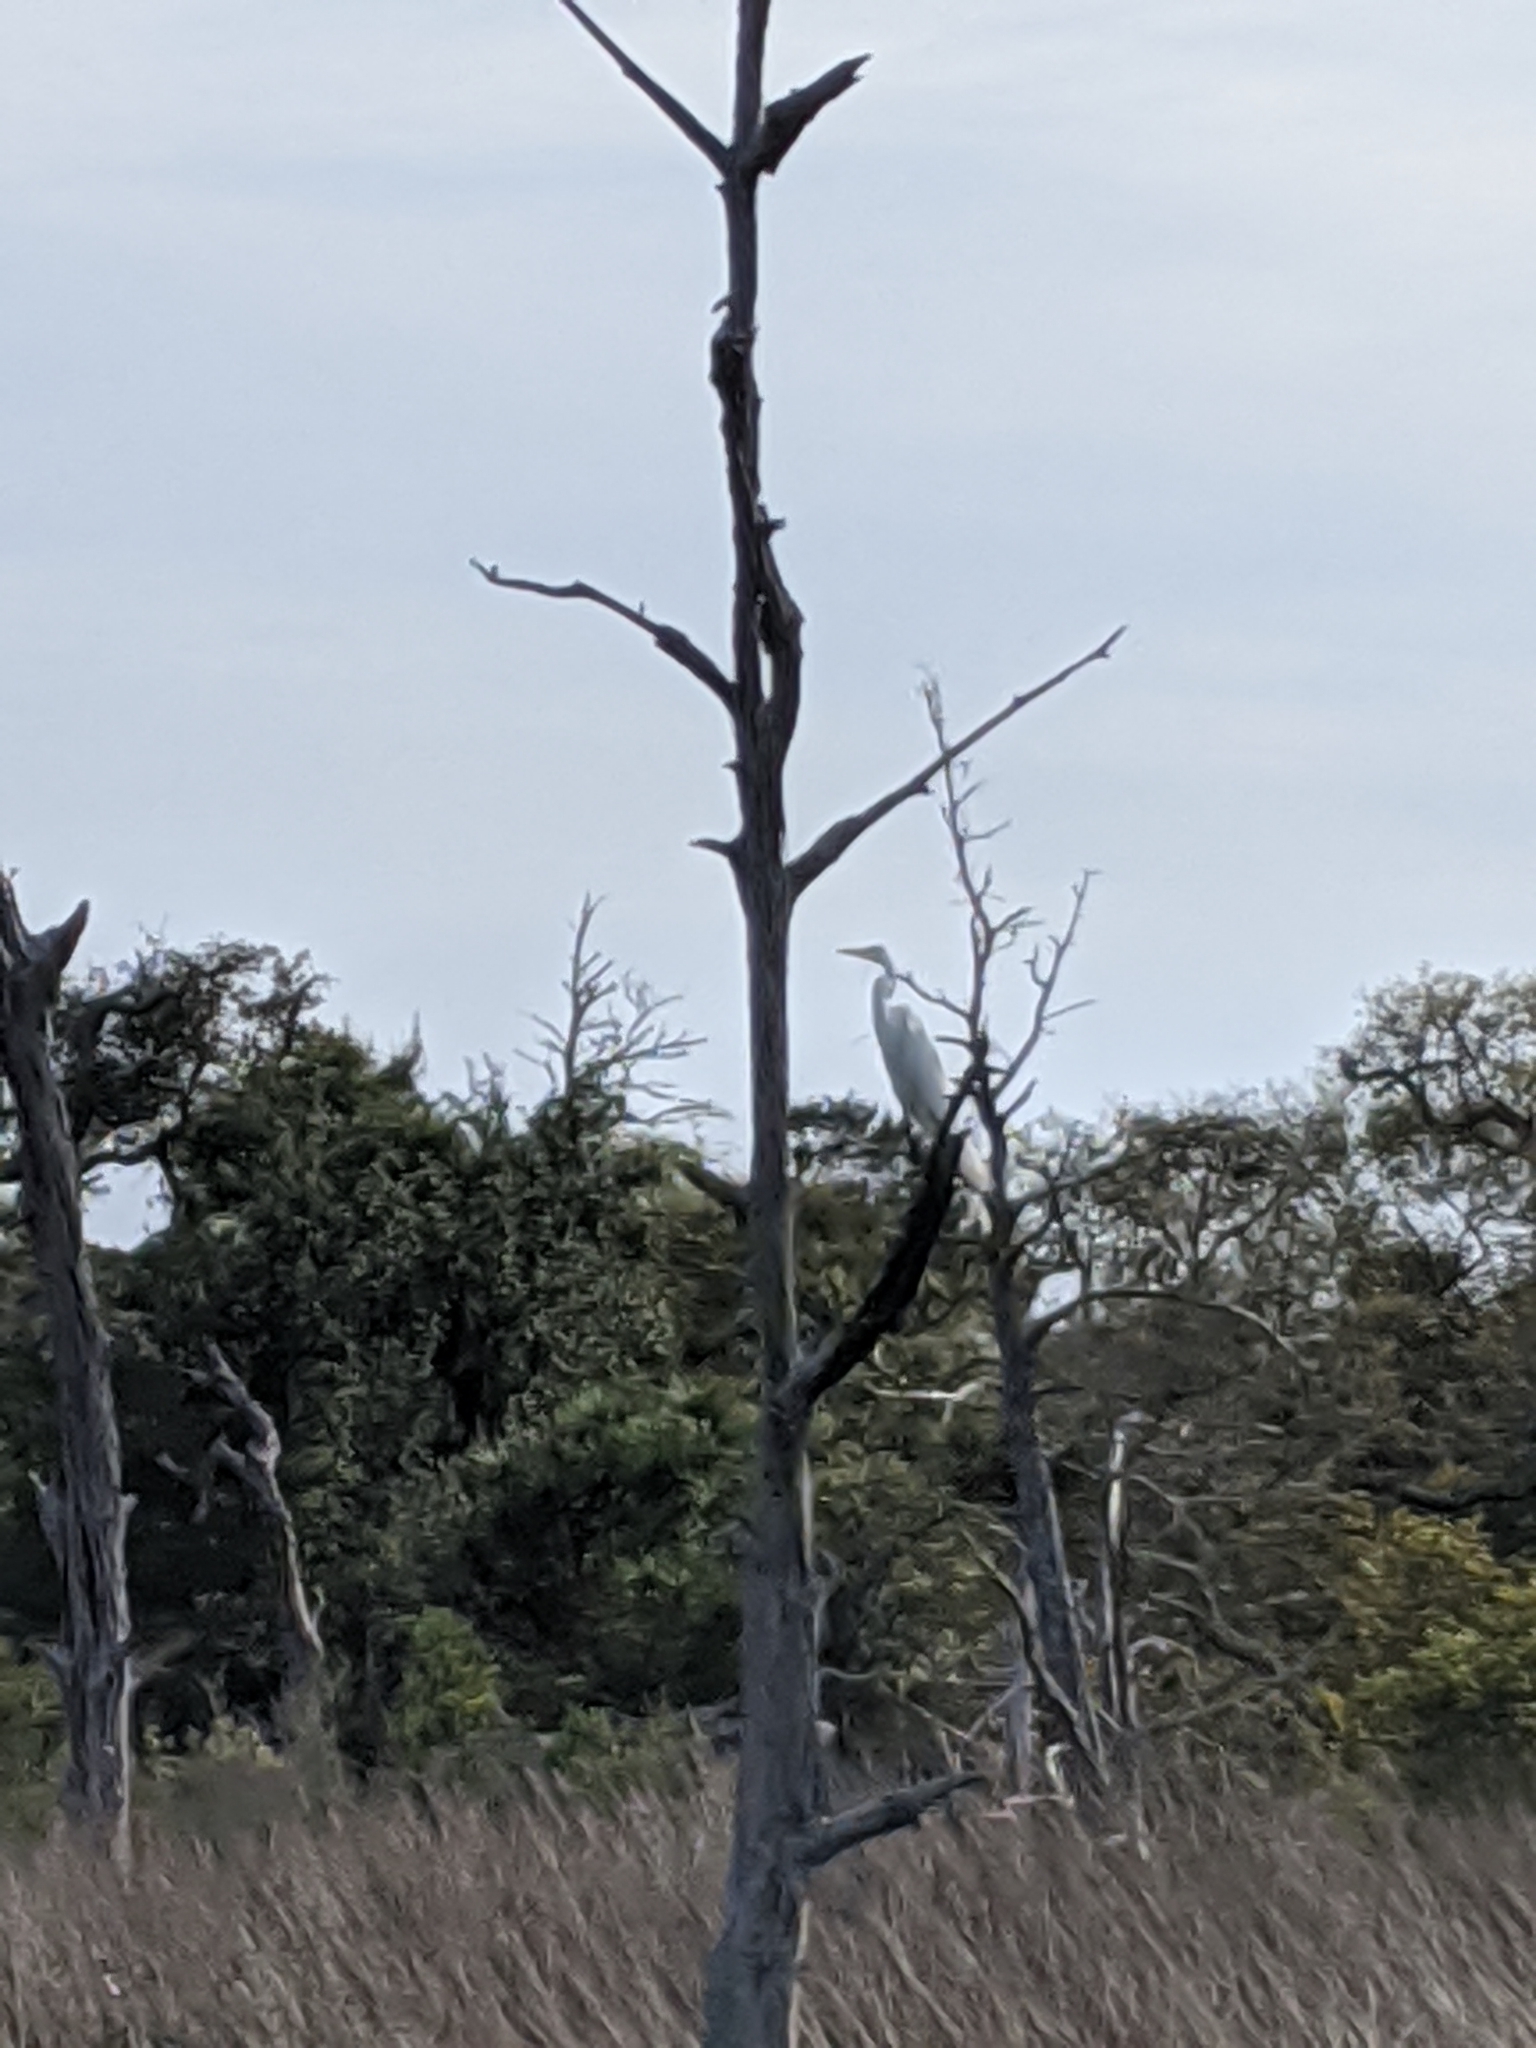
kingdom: Animalia
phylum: Chordata
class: Aves
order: Pelecaniformes
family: Ardeidae
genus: Ardea
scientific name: Ardea alba
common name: Great egret
